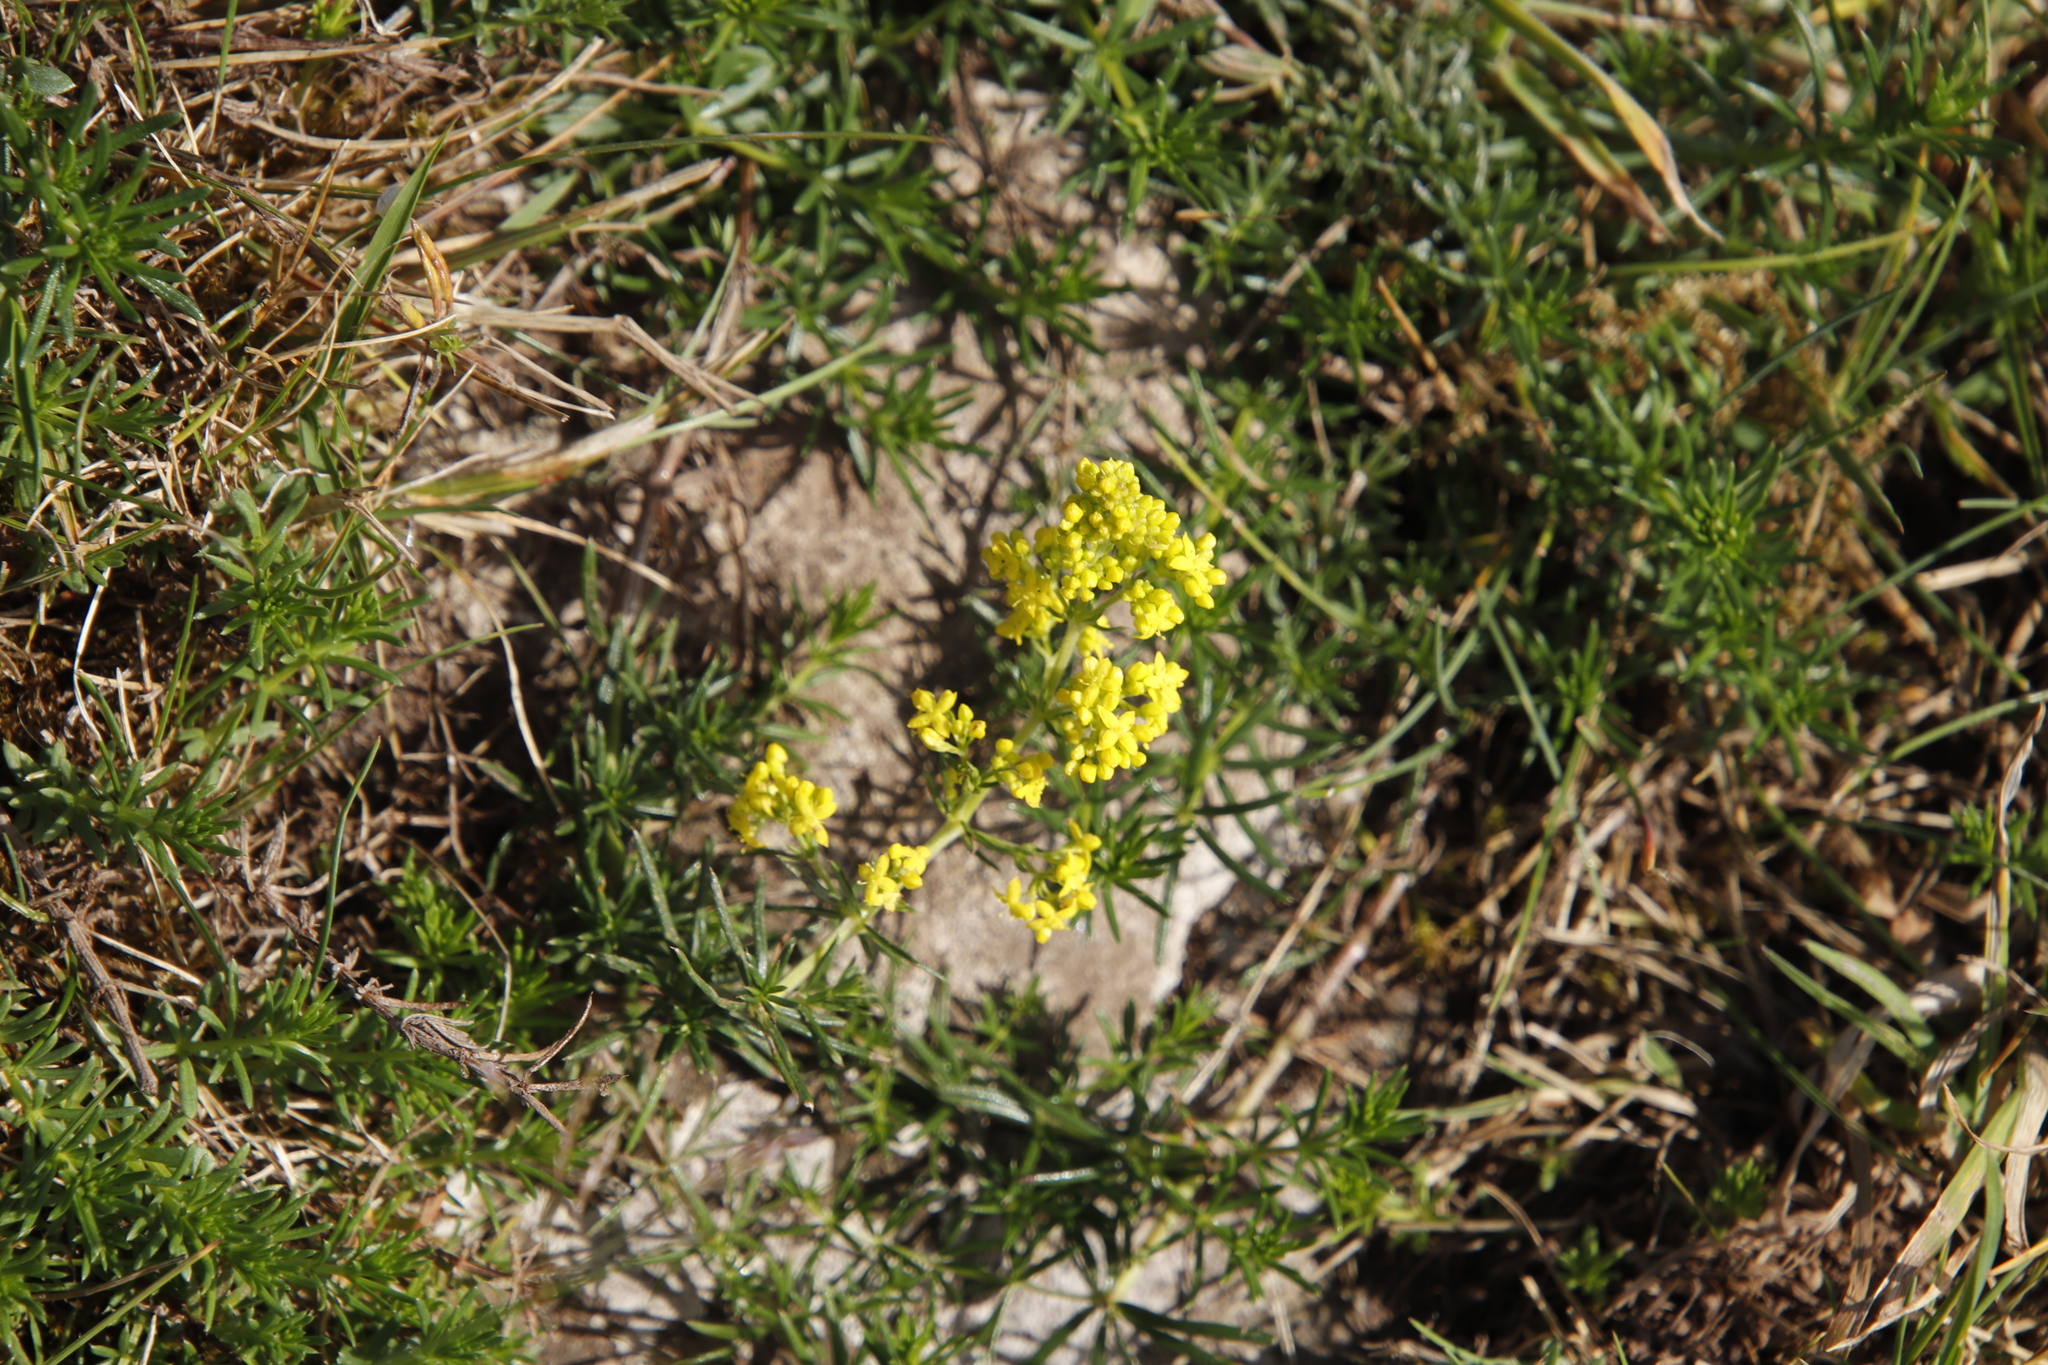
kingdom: Plantae
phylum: Tracheophyta
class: Magnoliopsida
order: Gentianales
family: Rubiaceae
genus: Galium
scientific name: Galium verum
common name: Lady's bedstraw
